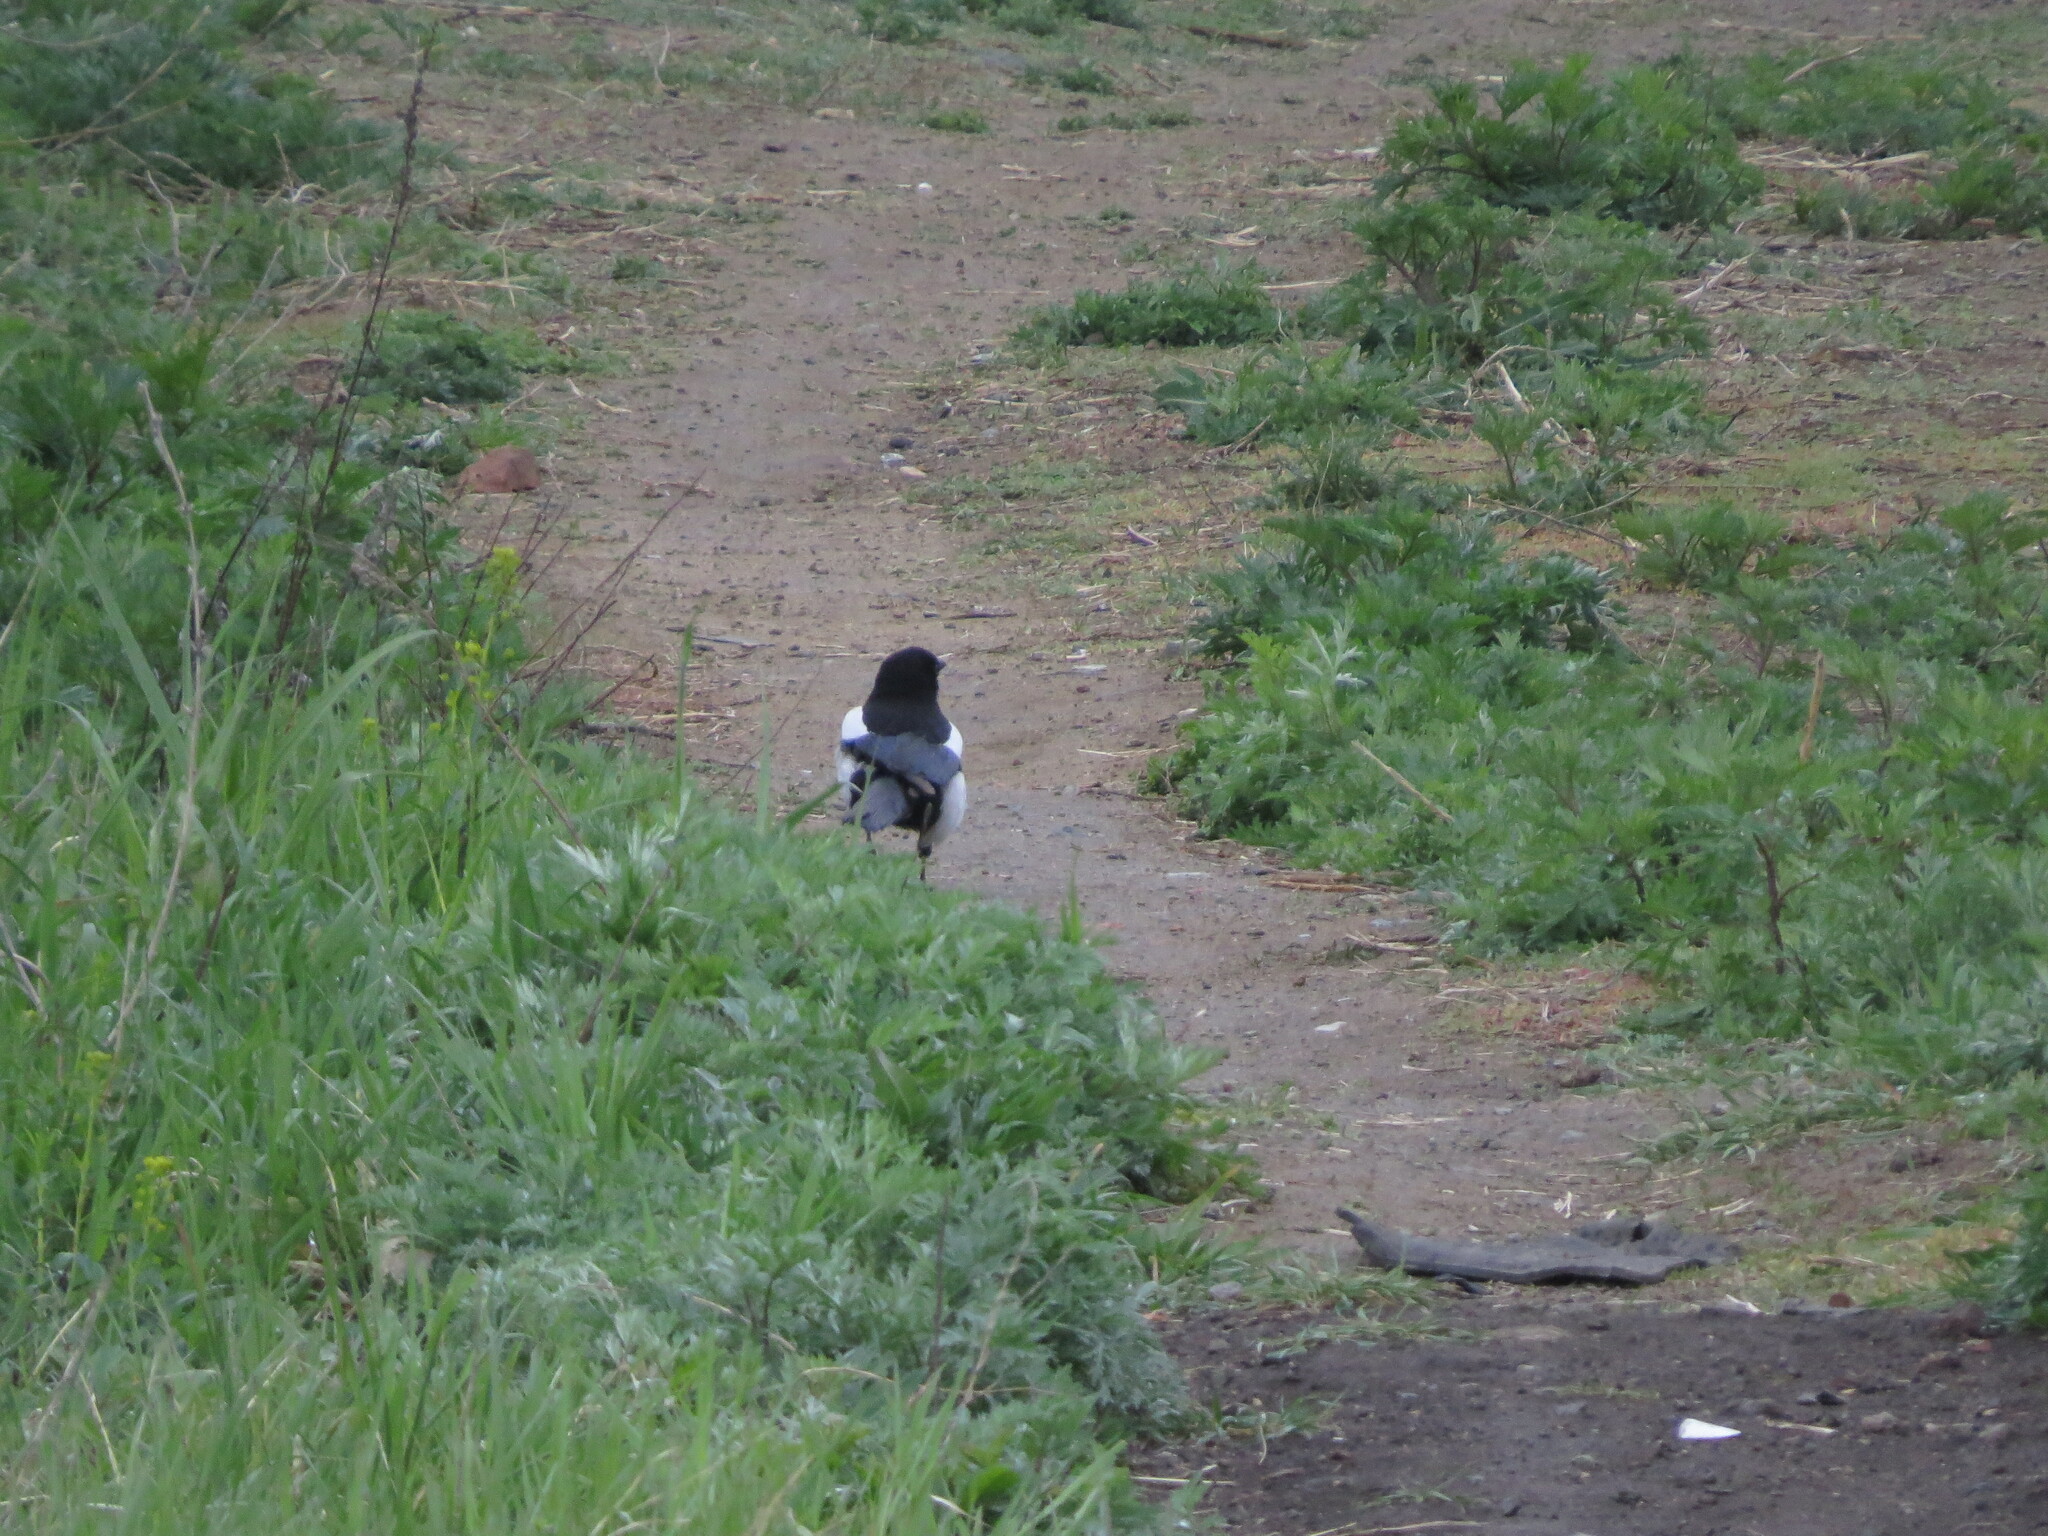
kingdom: Animalia
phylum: Chordata
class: Aves
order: Passeriformes
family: Corvidae
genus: Pica
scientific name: Pica pica
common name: Eurasian magpie
